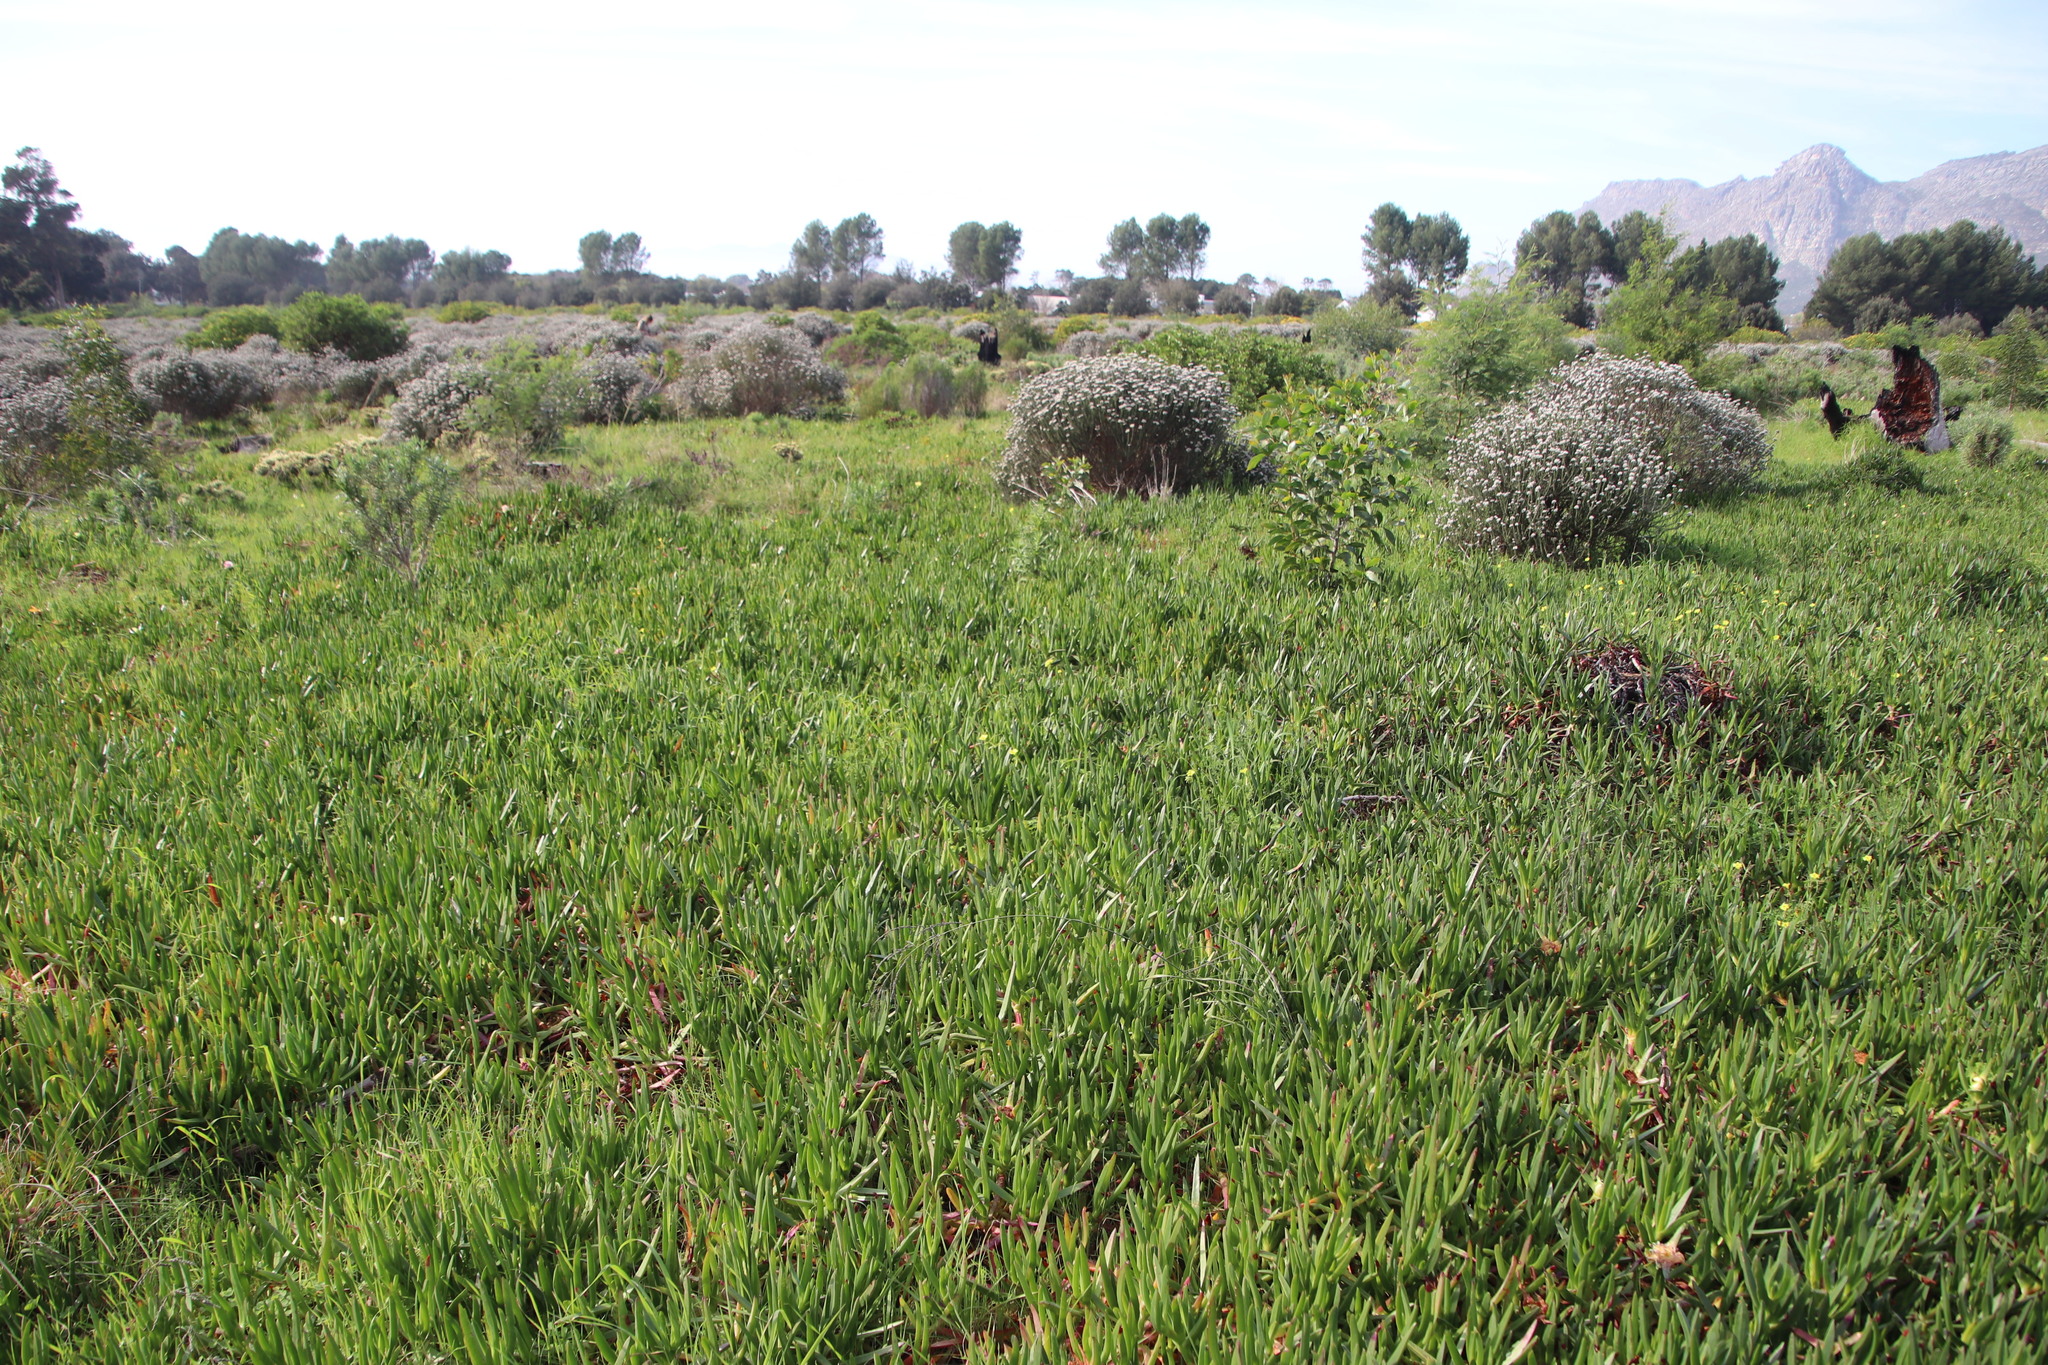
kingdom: Plantae
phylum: Tracheophyta
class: Magnoliopsida
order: Caryophyllales
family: Aizoaceae
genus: Carpobrotus
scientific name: Carpobrotus edulis
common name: Hottentot-fig
